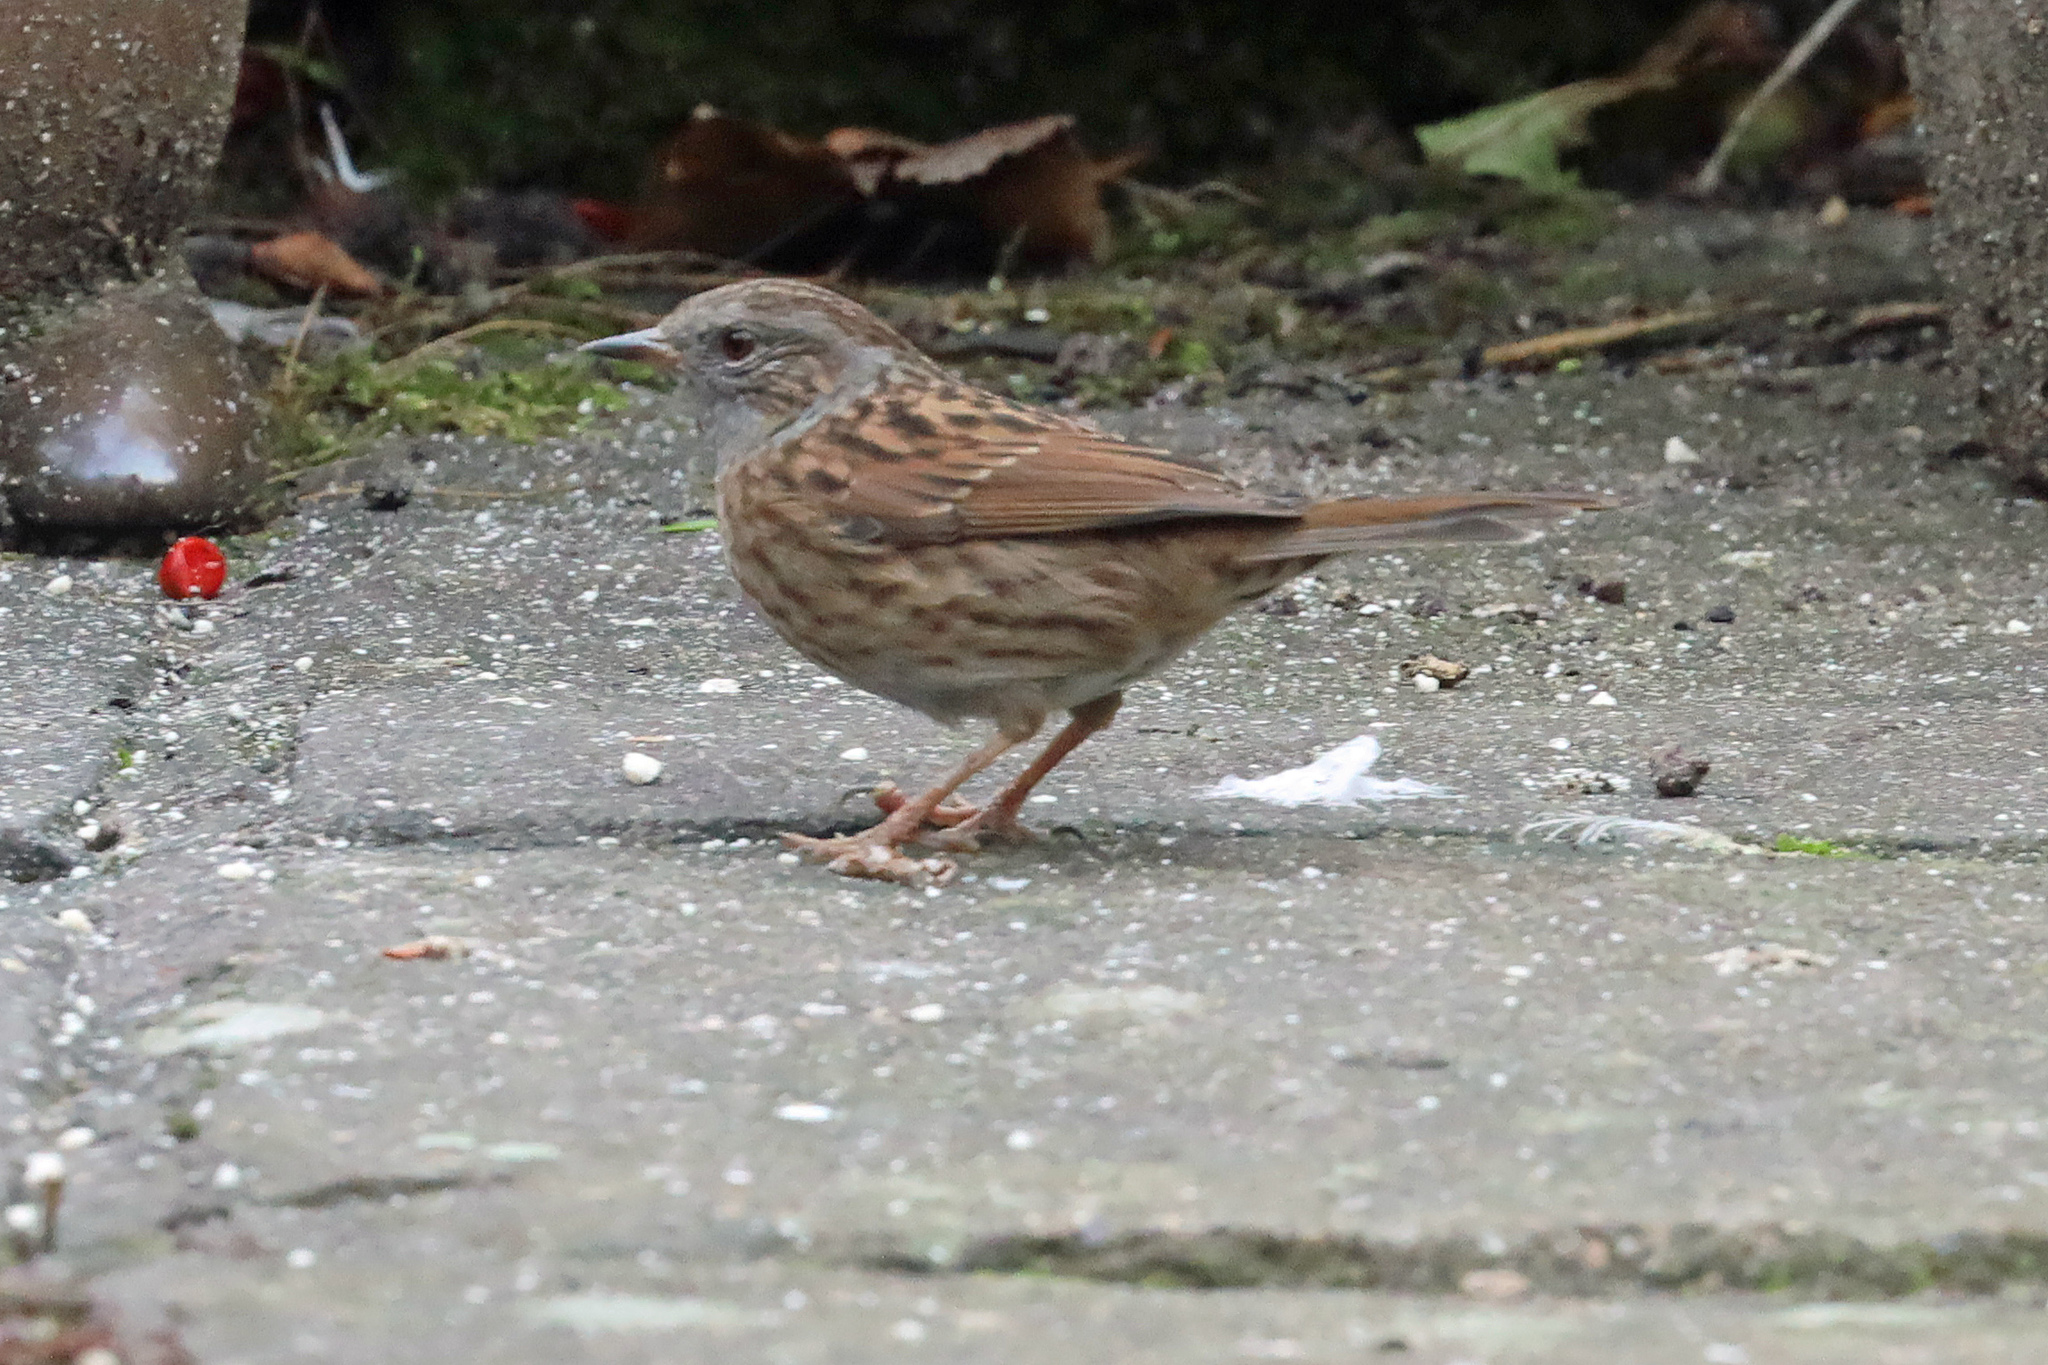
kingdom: Animalia
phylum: Chordata
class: Aves
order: Passeriformes
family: Prunellidae
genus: Prunella
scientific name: Prunella modularis
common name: Dunnock
